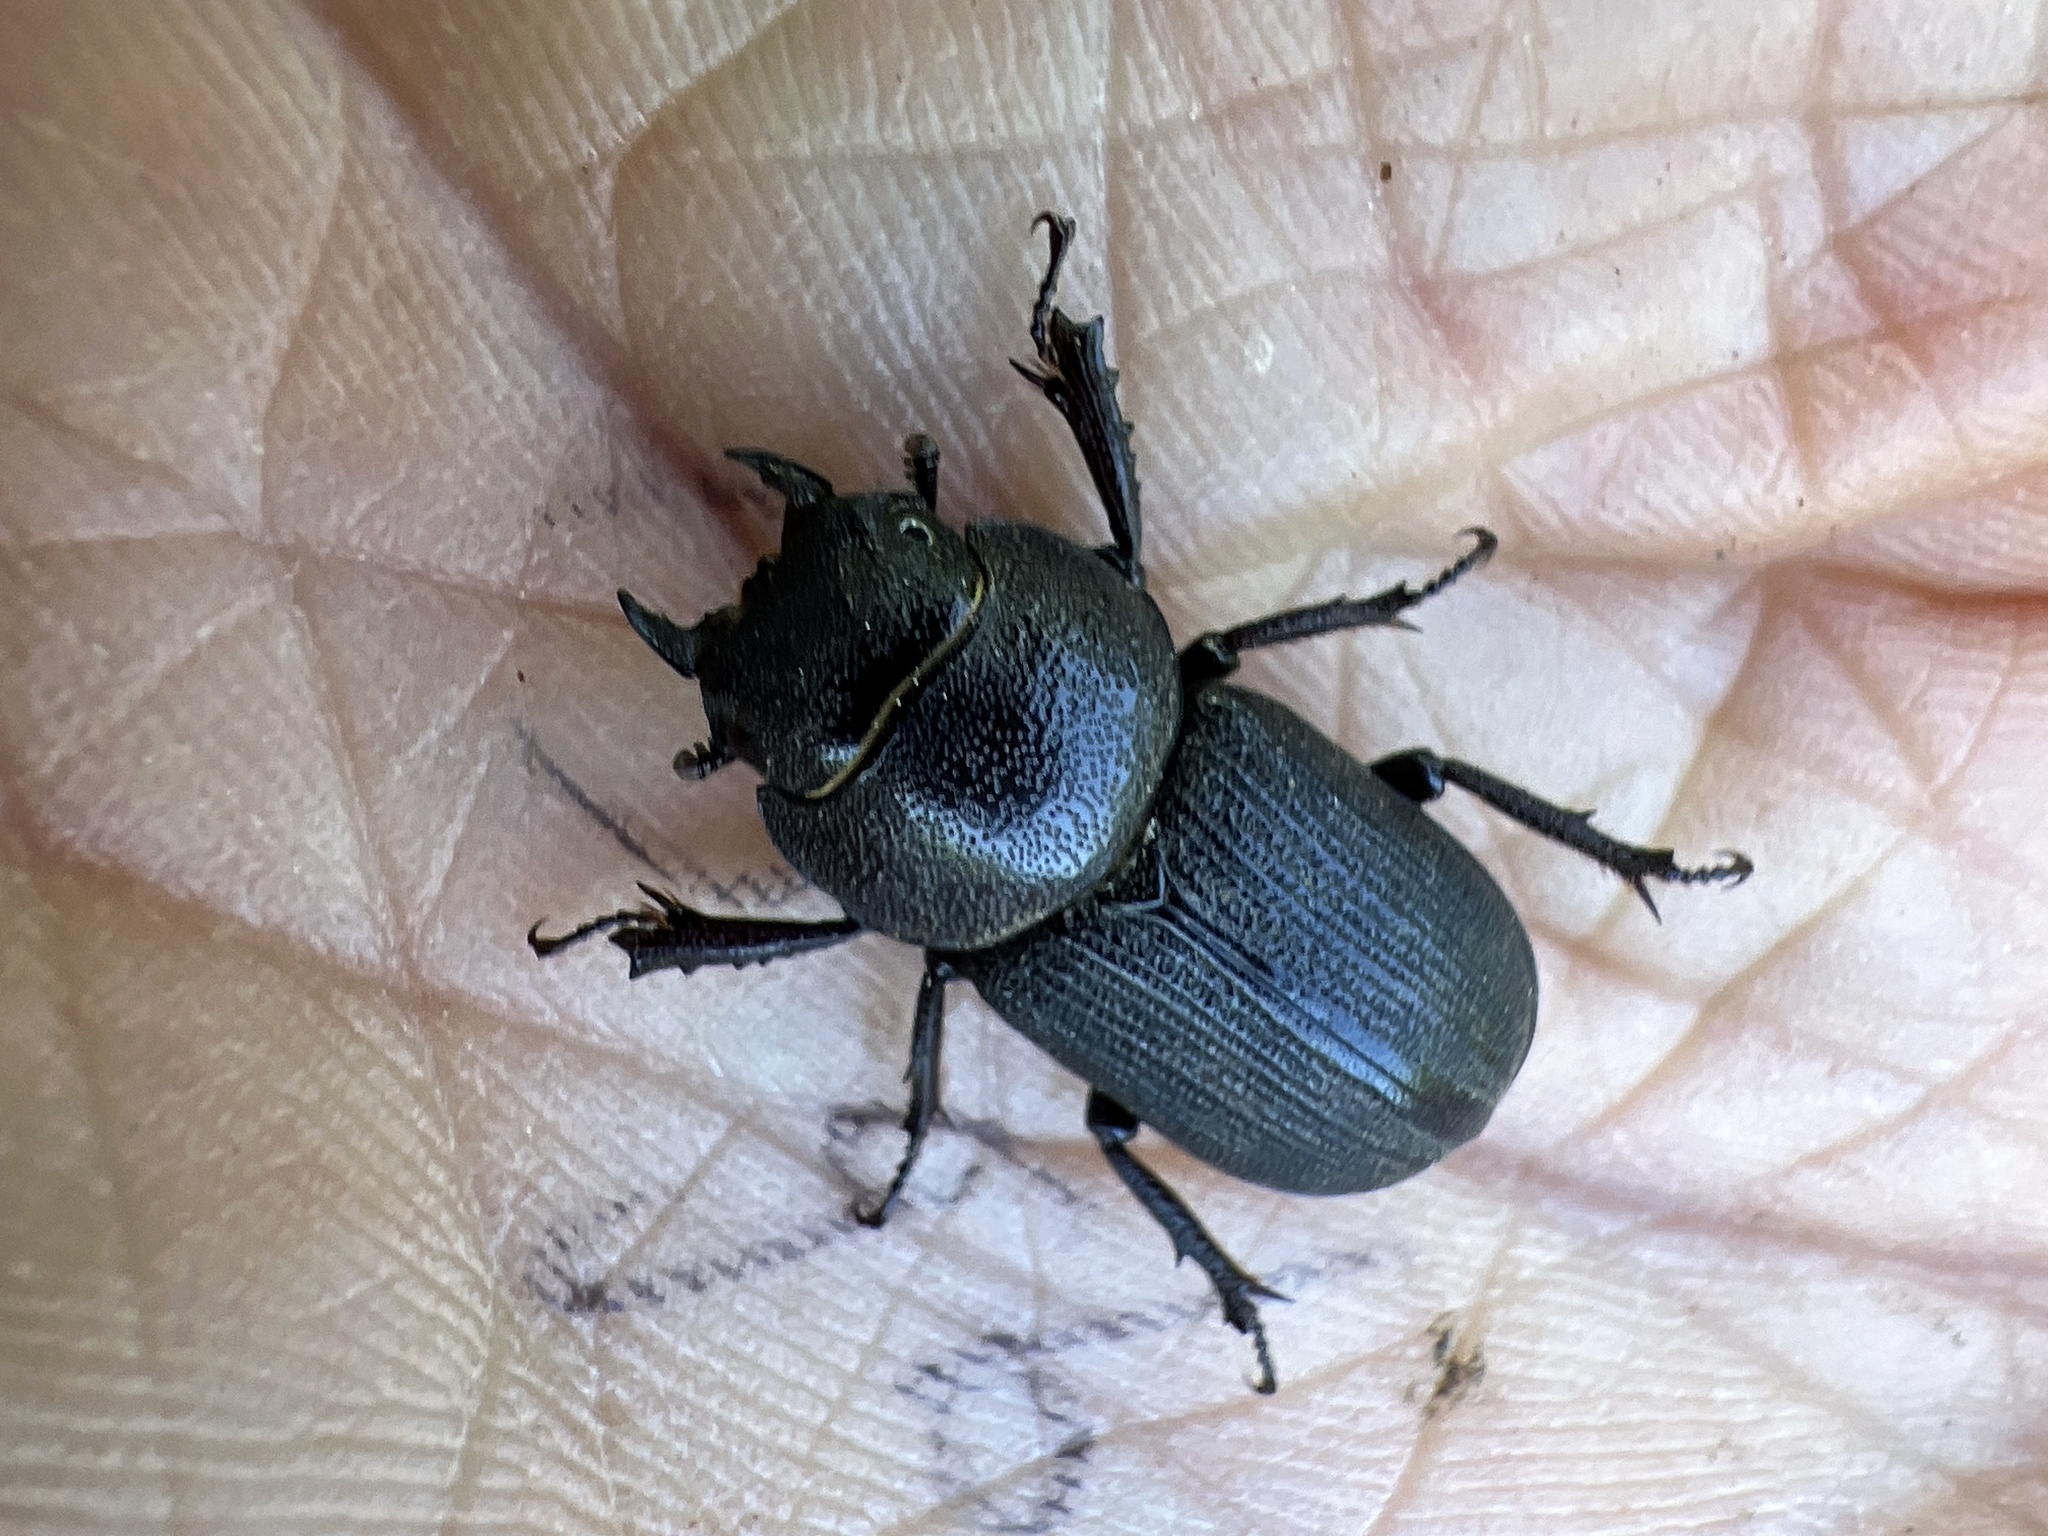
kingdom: Animalia
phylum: Arthropoda
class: Insecta
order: Coleoptera
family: Lucanidae
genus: Dorcus
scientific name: Dorcus parallelus
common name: Antelope beetle
